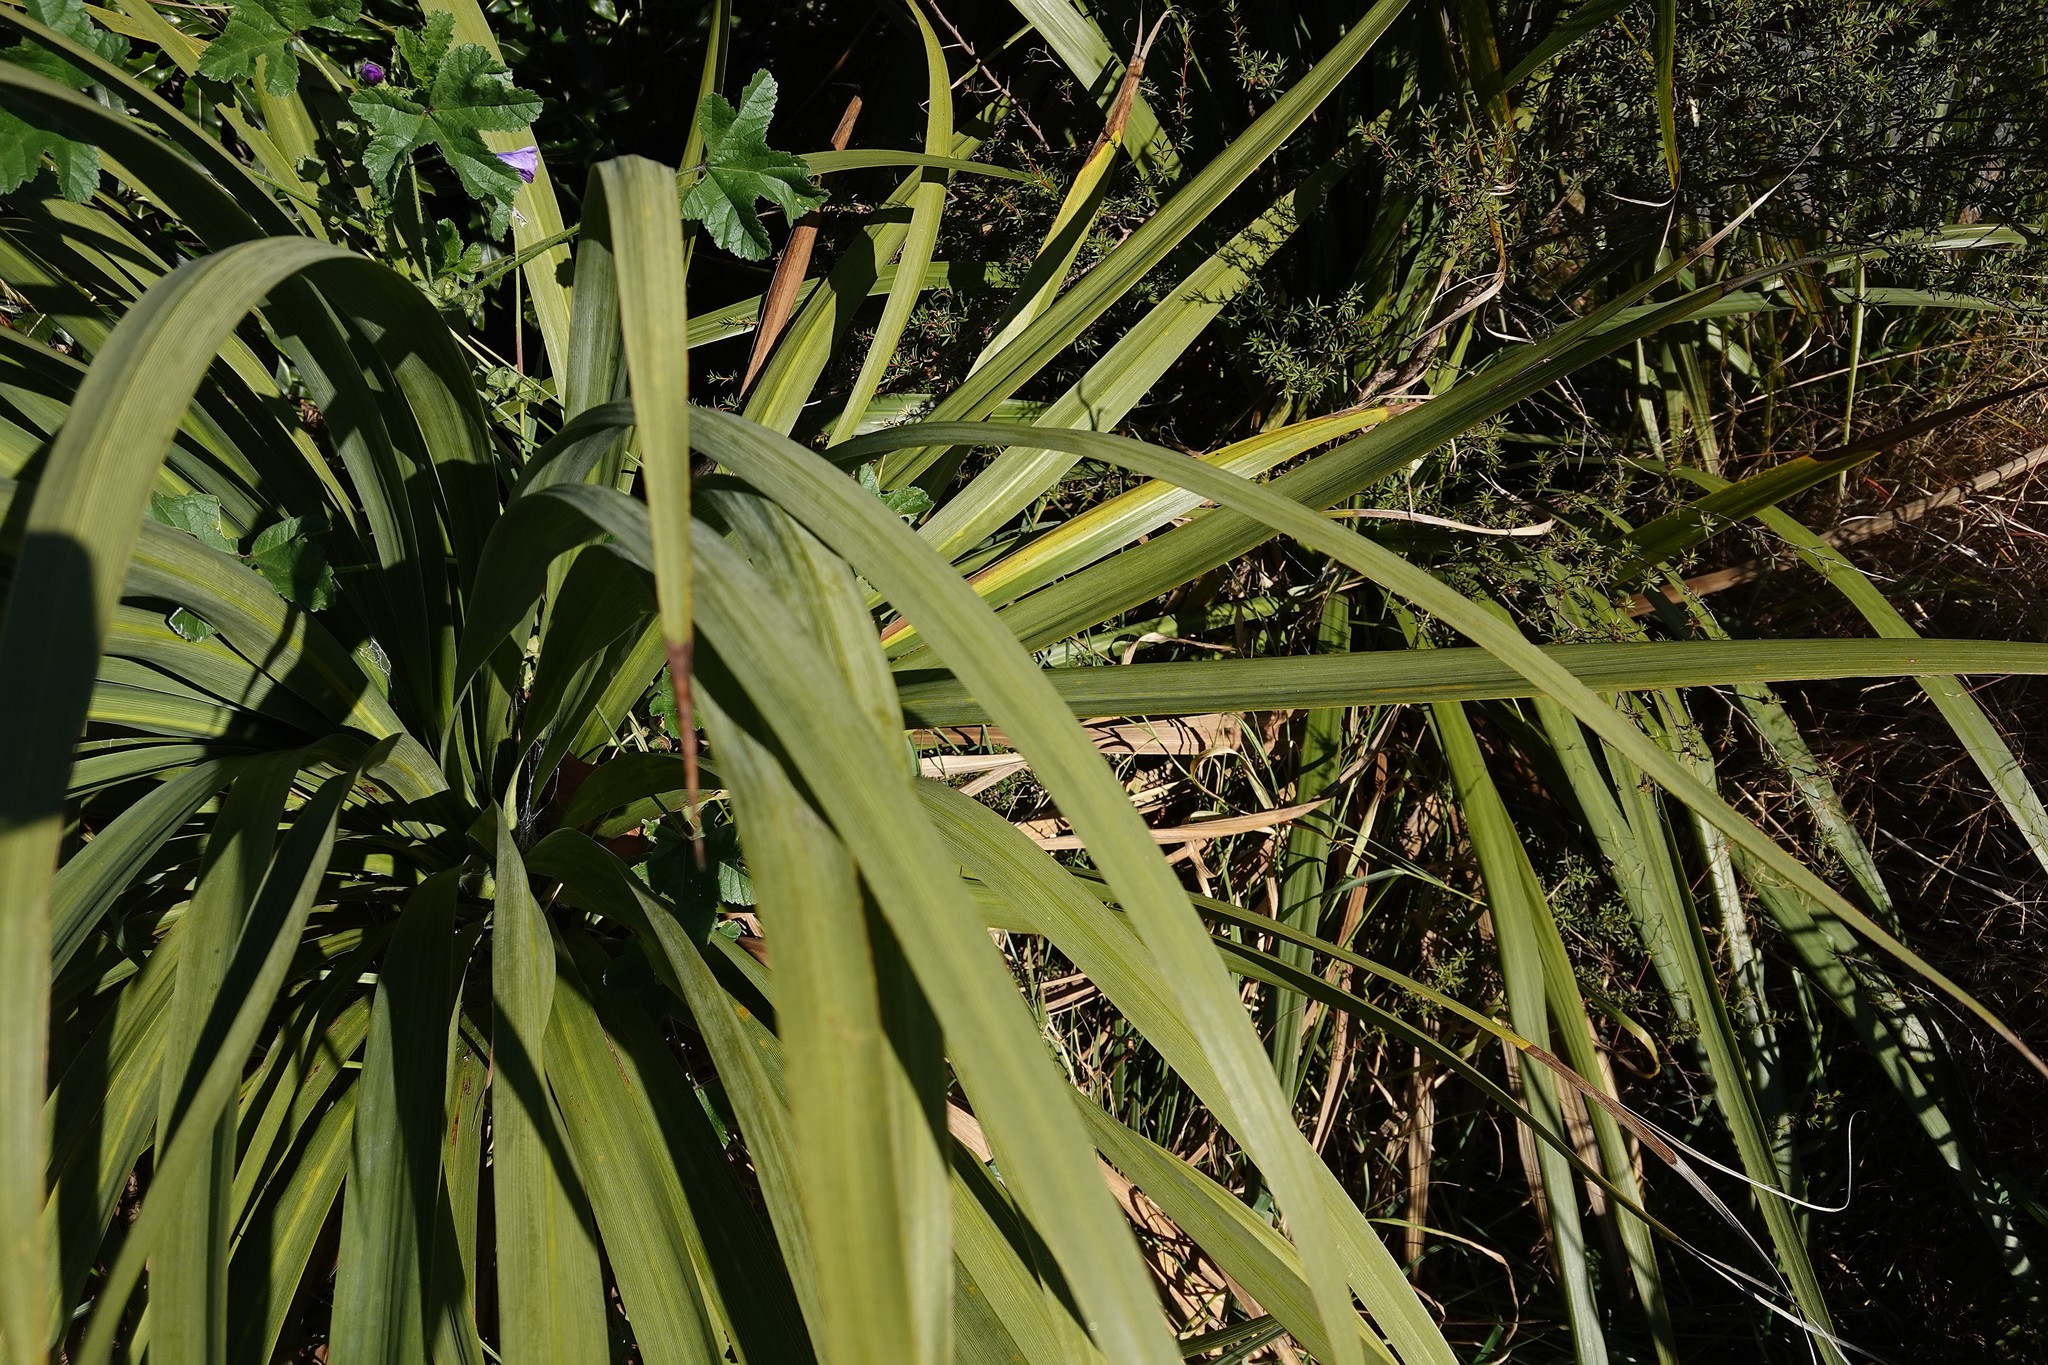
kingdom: Plantae
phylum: Tracheophyta
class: Liliopsida
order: Asparagales
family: Asparagaceae
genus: Cordyline
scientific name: Cordyline australis
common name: Cabbage-palm
